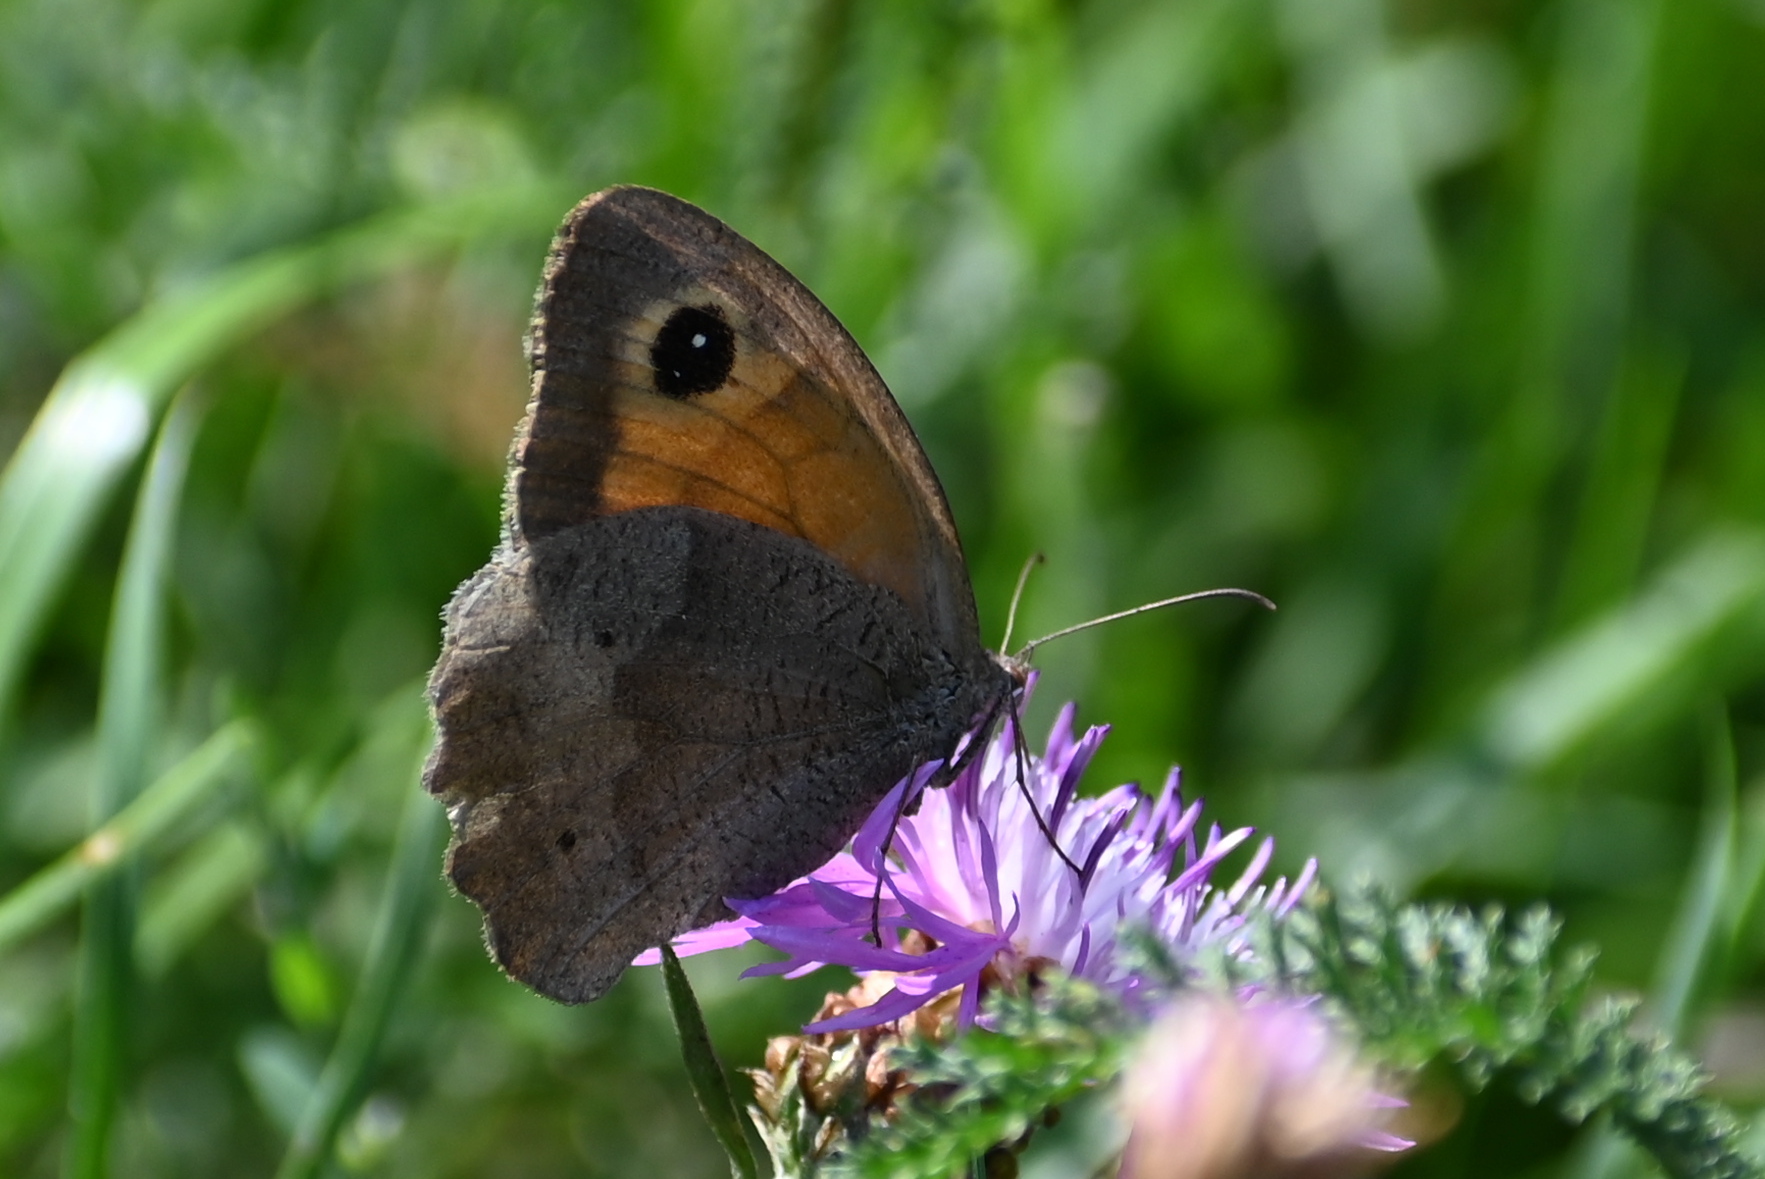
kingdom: Animalia
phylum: Arthropoda
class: Insecta
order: Lepidoptera
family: Nymphalidae
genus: Maniola
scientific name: Maniola jurtina
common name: Meadow brown
